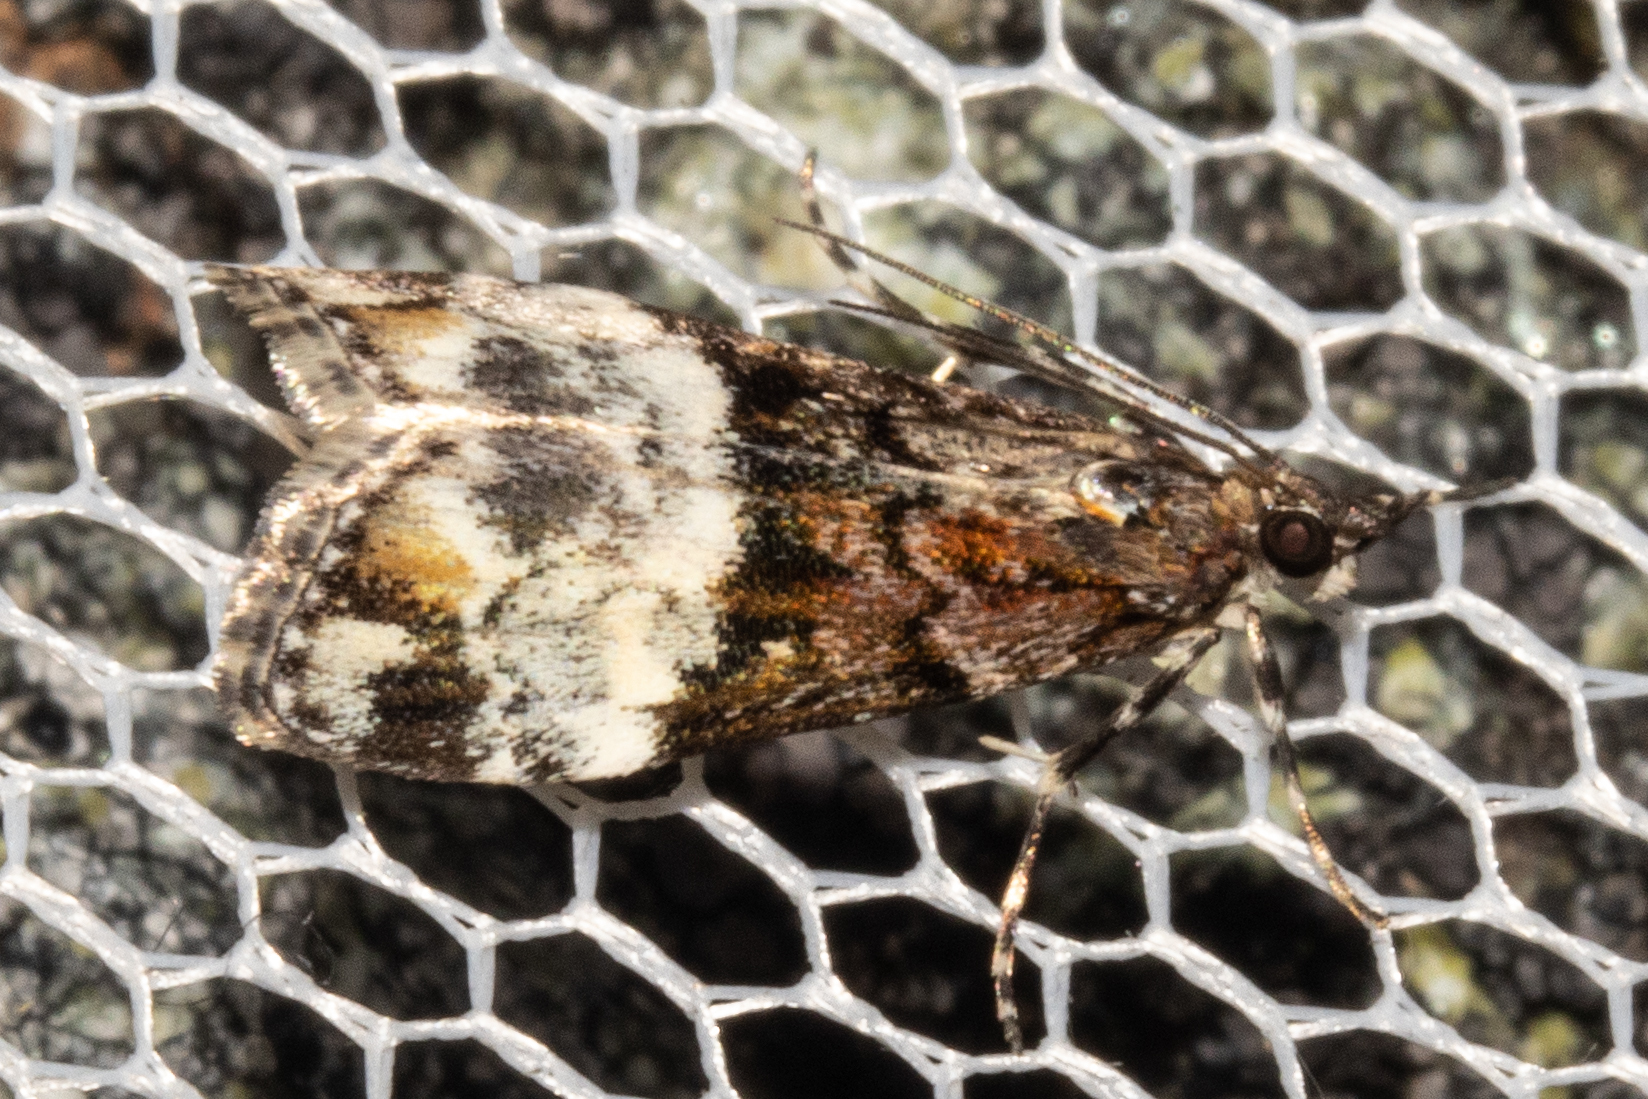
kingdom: Animalia
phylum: Arthropoda
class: Insecta
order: Lepidoptera
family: Crambidae
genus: Scoparia
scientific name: Scoparia minusculalis
